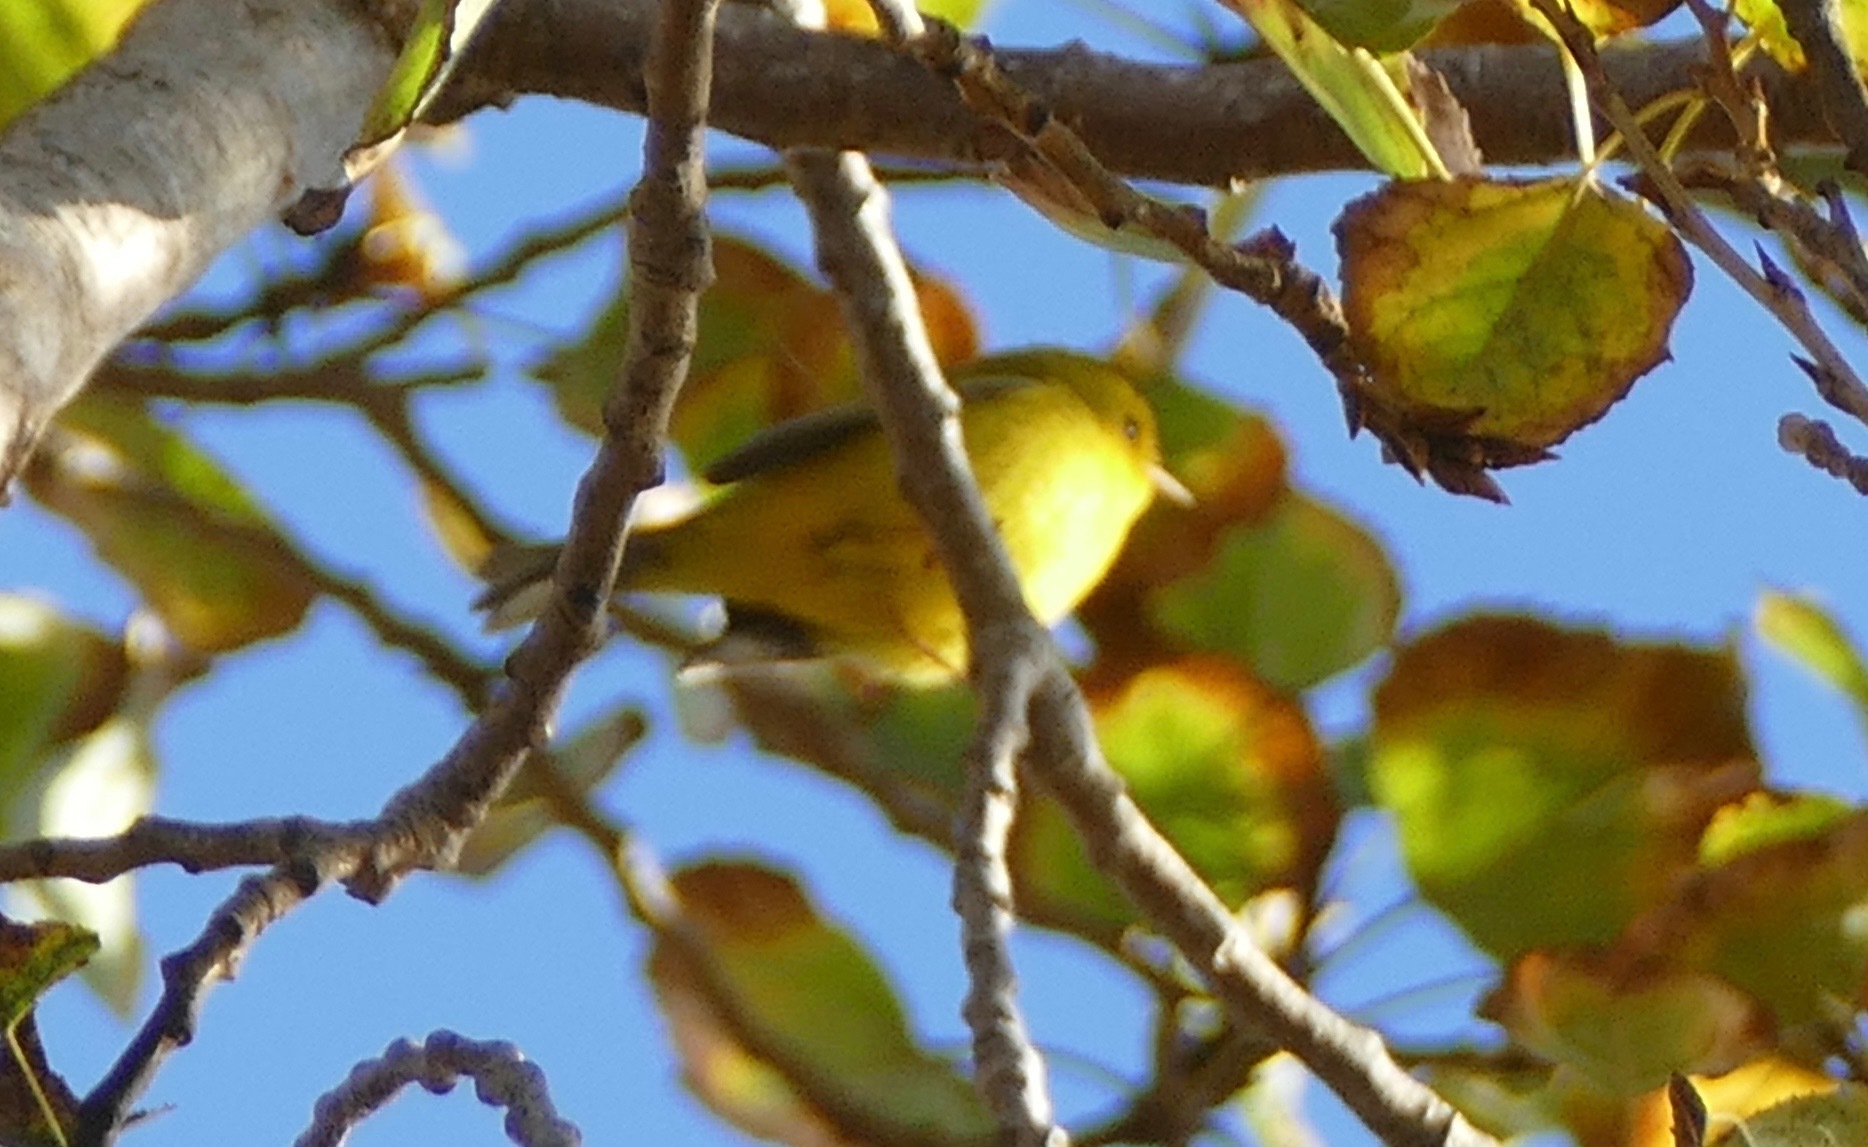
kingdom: Animalia
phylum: Chordata
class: Aves
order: Passeriformes
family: Parulidae
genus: Cardellina
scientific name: Cardellina pusilla
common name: Wilson's warbler
